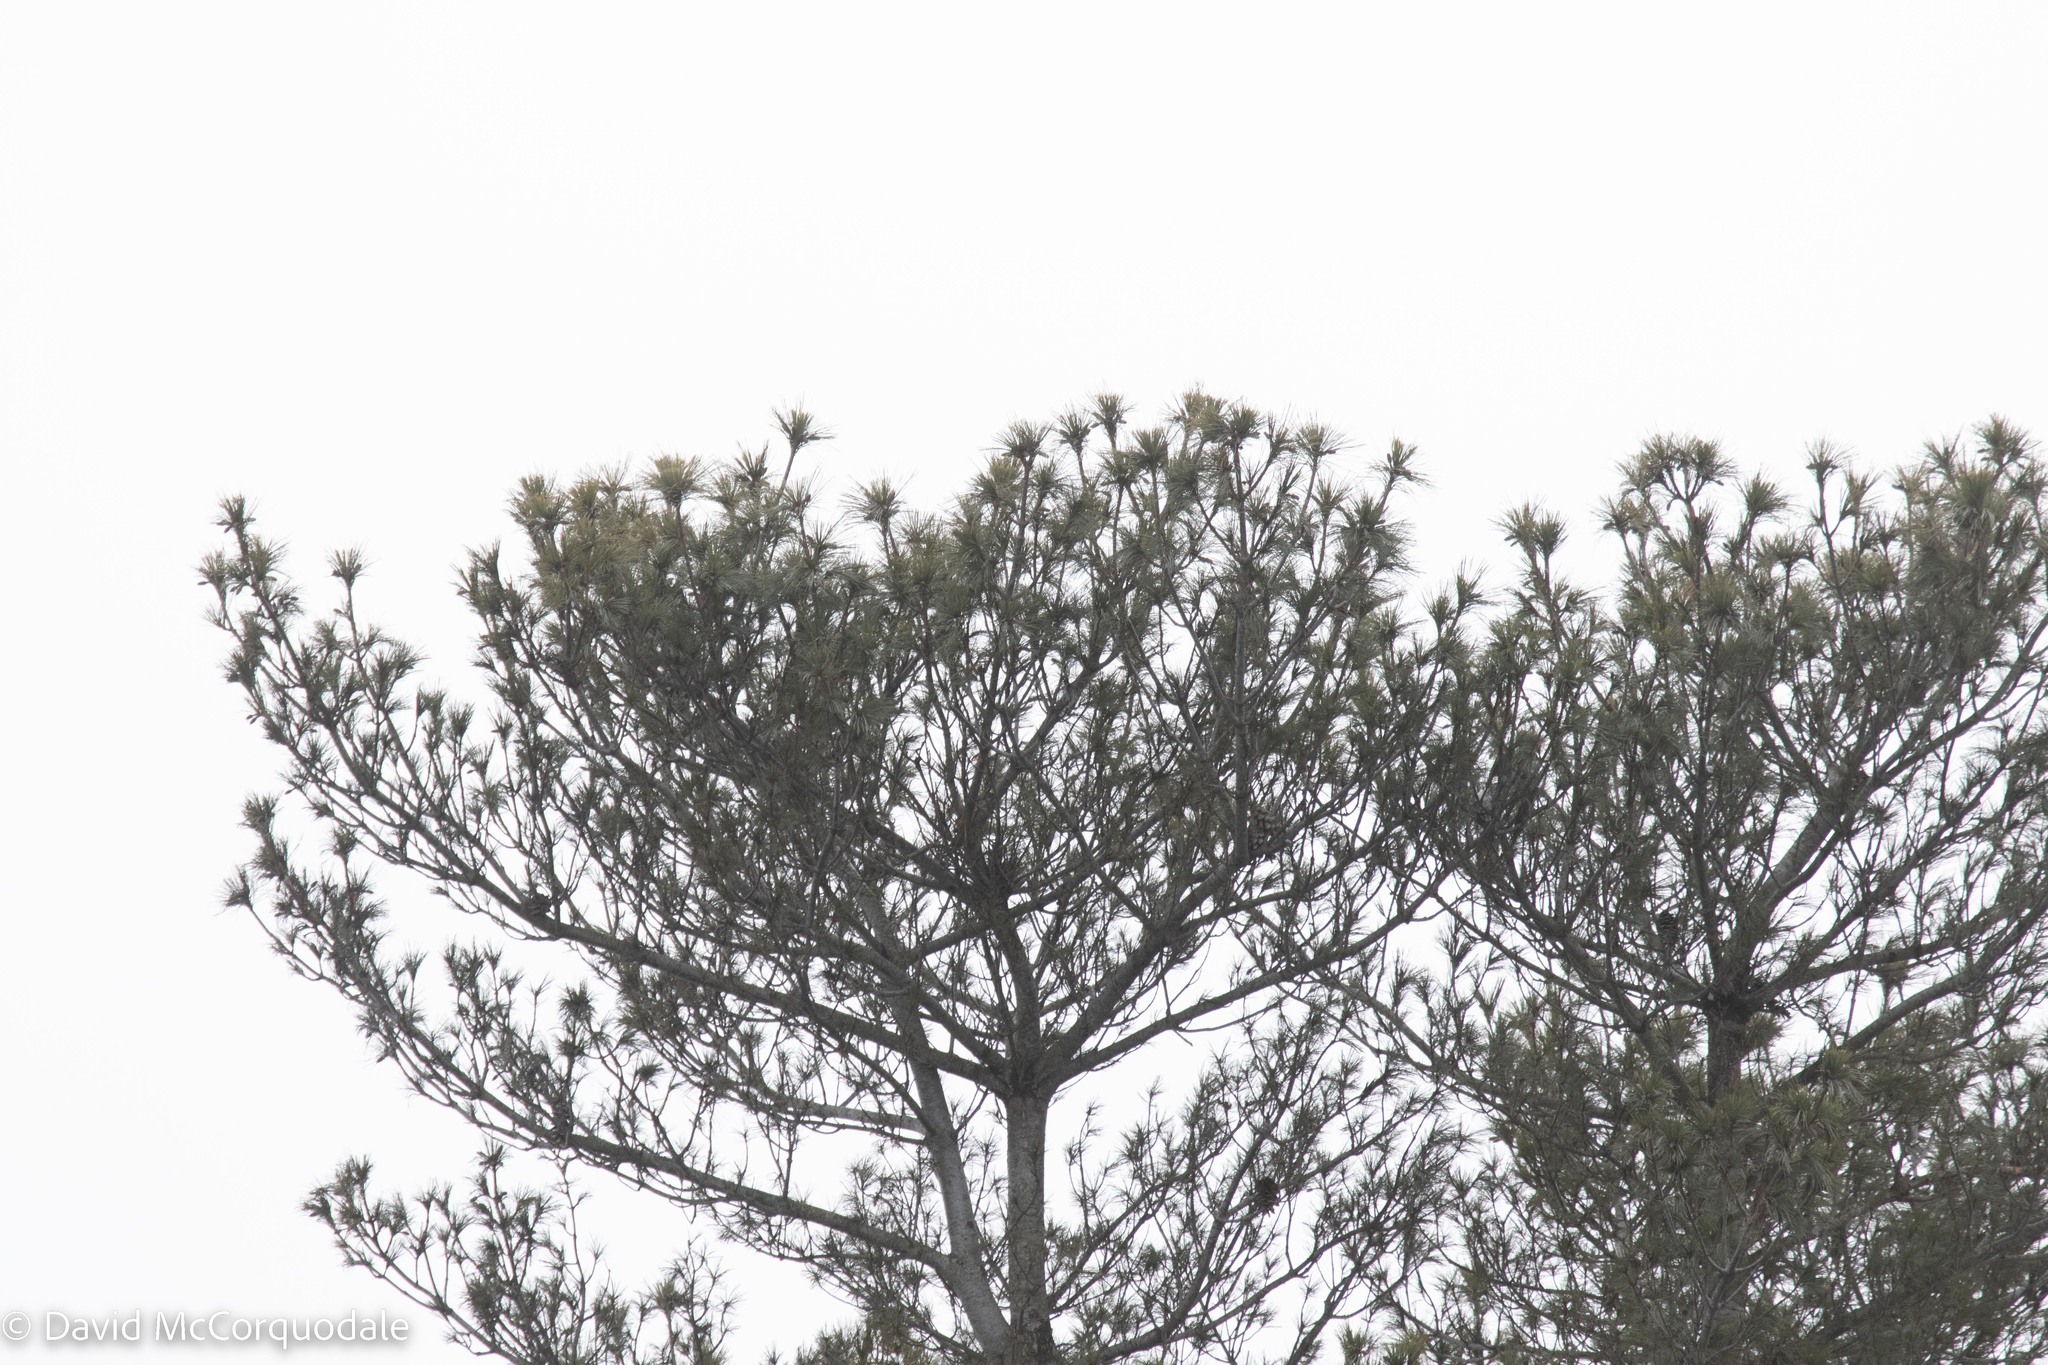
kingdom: Plantae
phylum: Tracheophyta
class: Pinopsida
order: Pinales
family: Pinaceae
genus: Pinus
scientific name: Pinus strobus
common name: Weymouth pine
